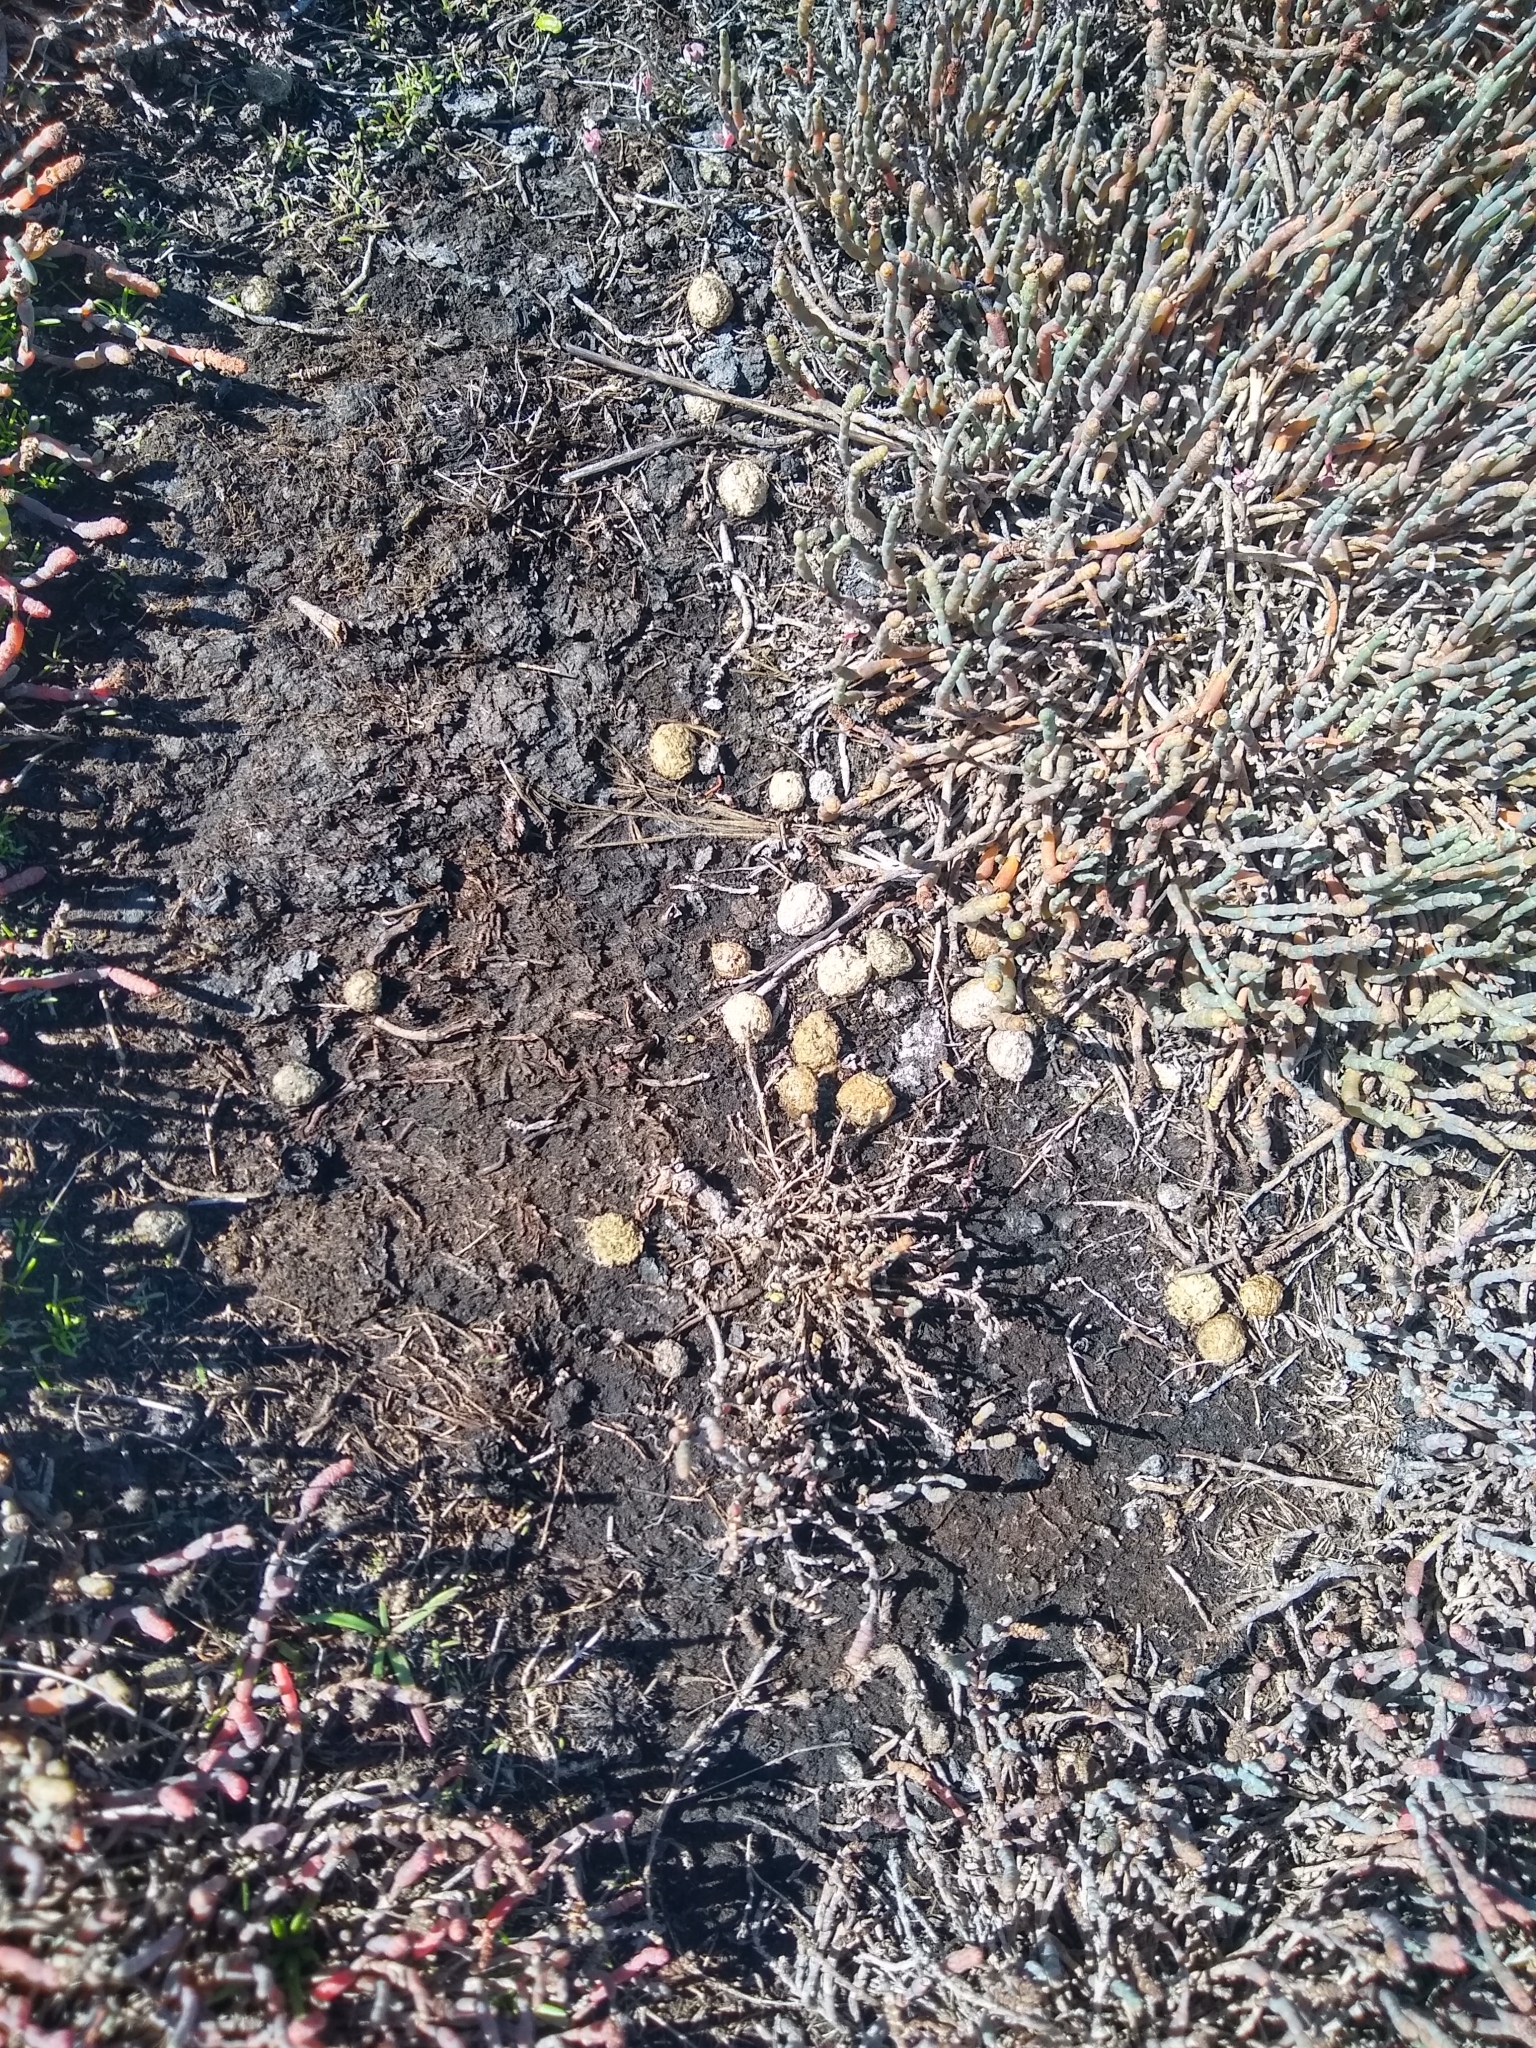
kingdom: Animalia
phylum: Chordata
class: Mammalia
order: Lagomorpha
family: Leporidae
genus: Oryctolagus
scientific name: Oryctolagus cuniculus
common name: European rabbit
